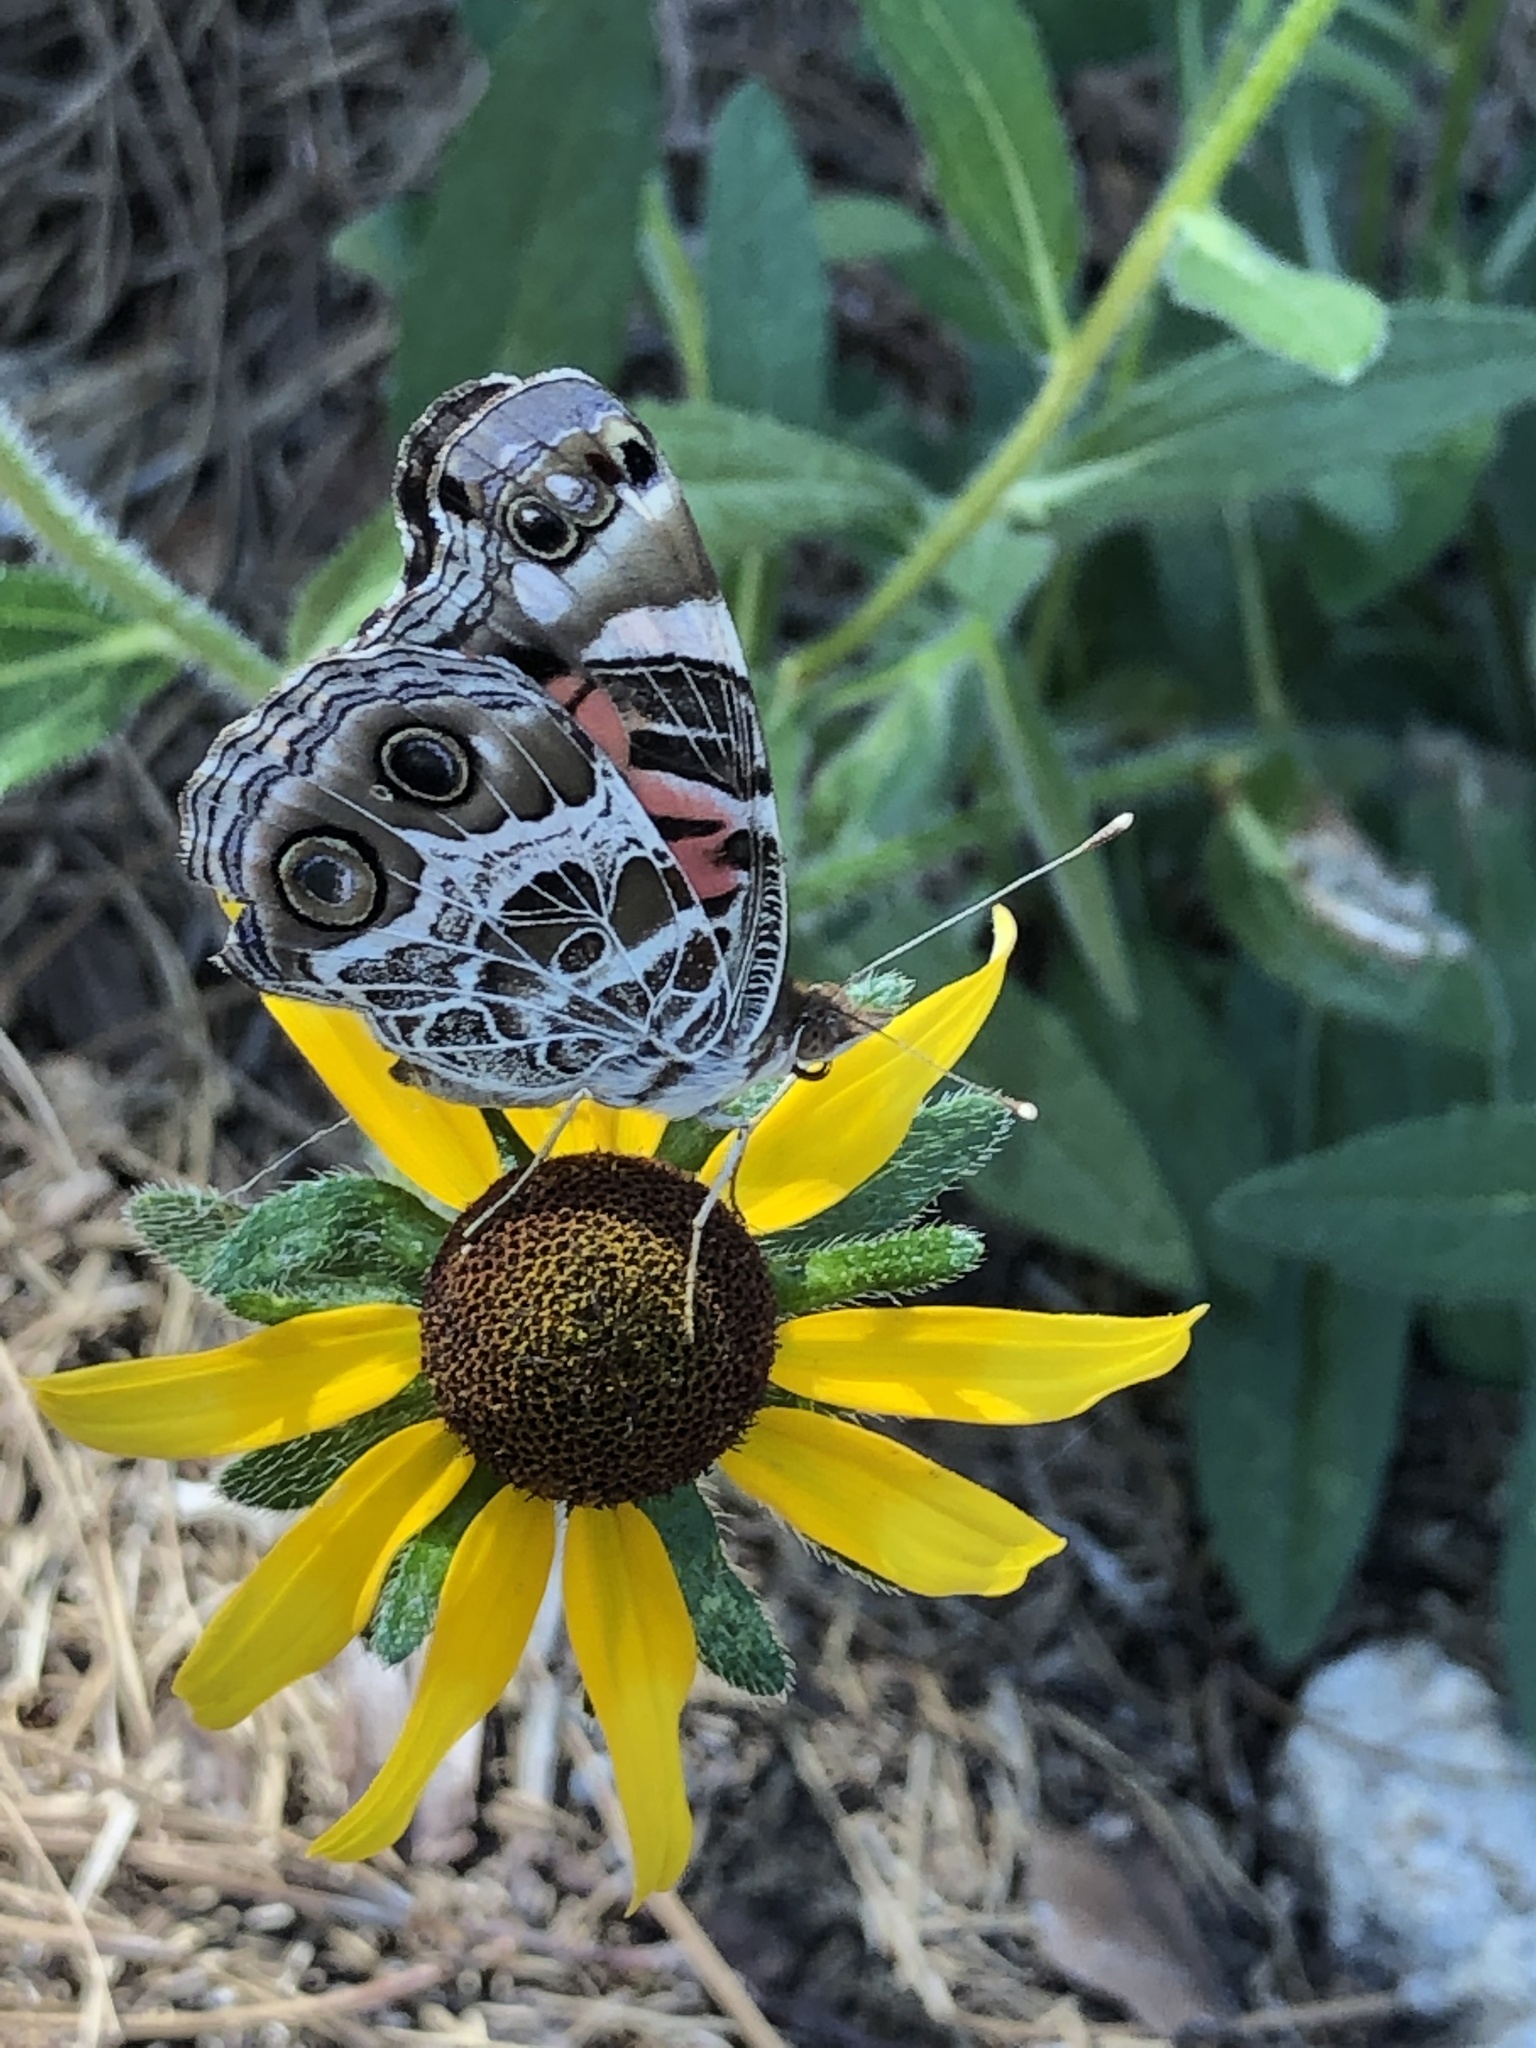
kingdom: Animalia
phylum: Arthropoda
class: Insecta
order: Lepidoptera
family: Nymphalidae
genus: Vanessa
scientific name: Vanessa virginiensis
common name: American lady
